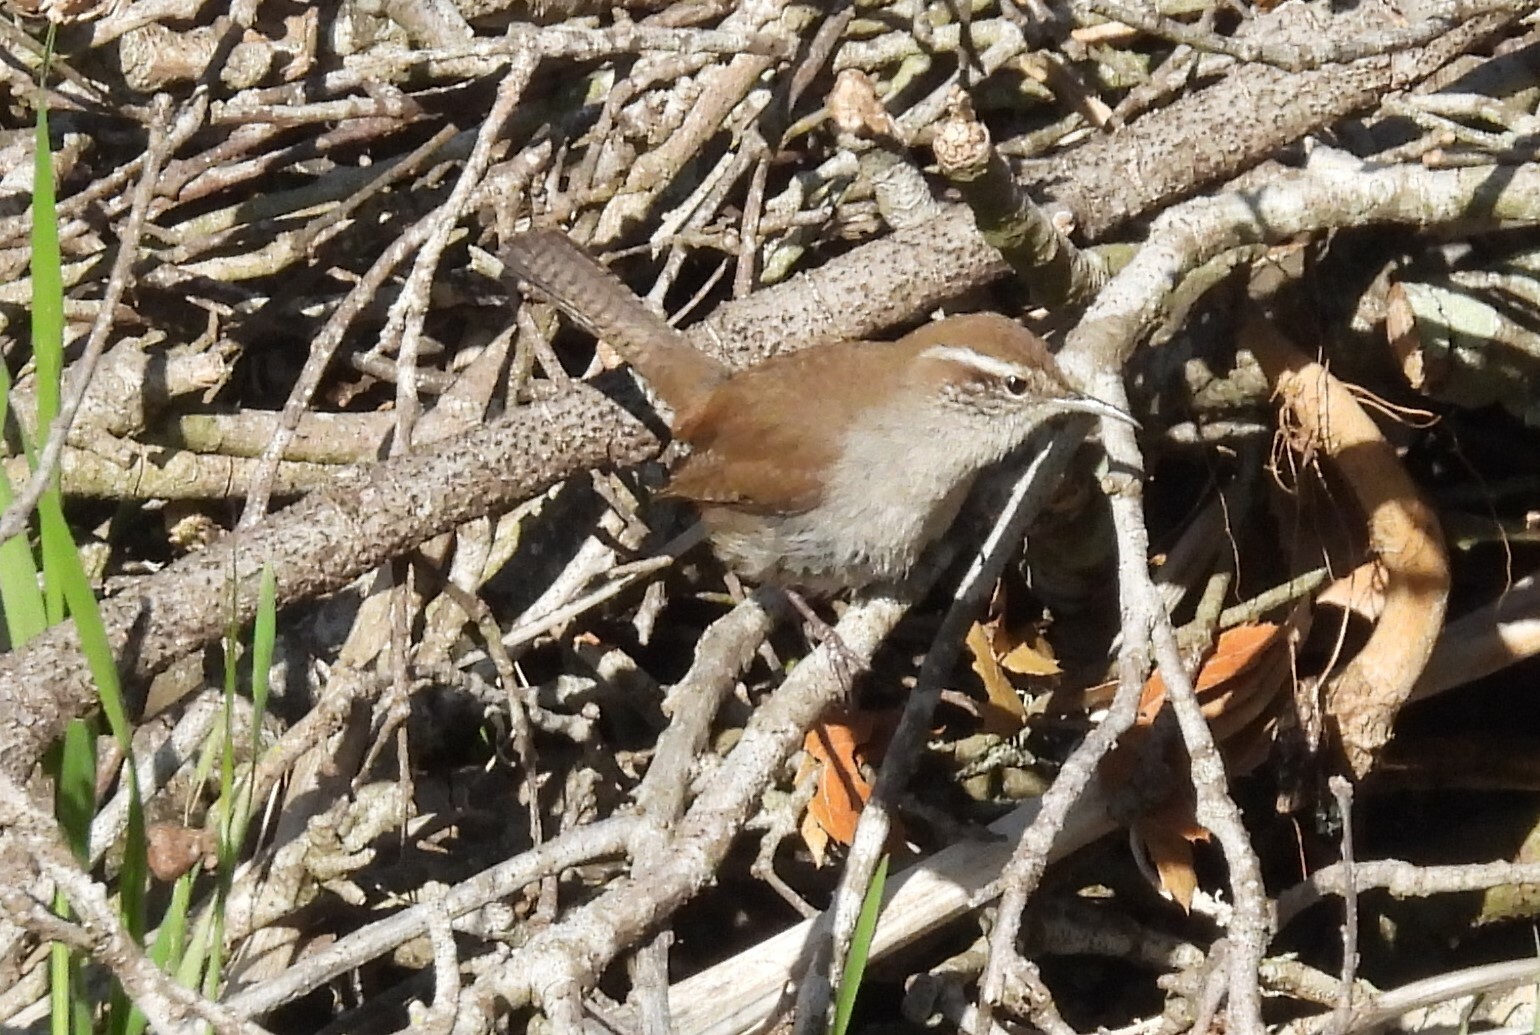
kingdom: Animalia
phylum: Chordata
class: Aves
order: Passeriformes
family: Troglodytidae
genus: Thryomanes
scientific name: Thryomanes bewickii
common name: Bewick's wren
